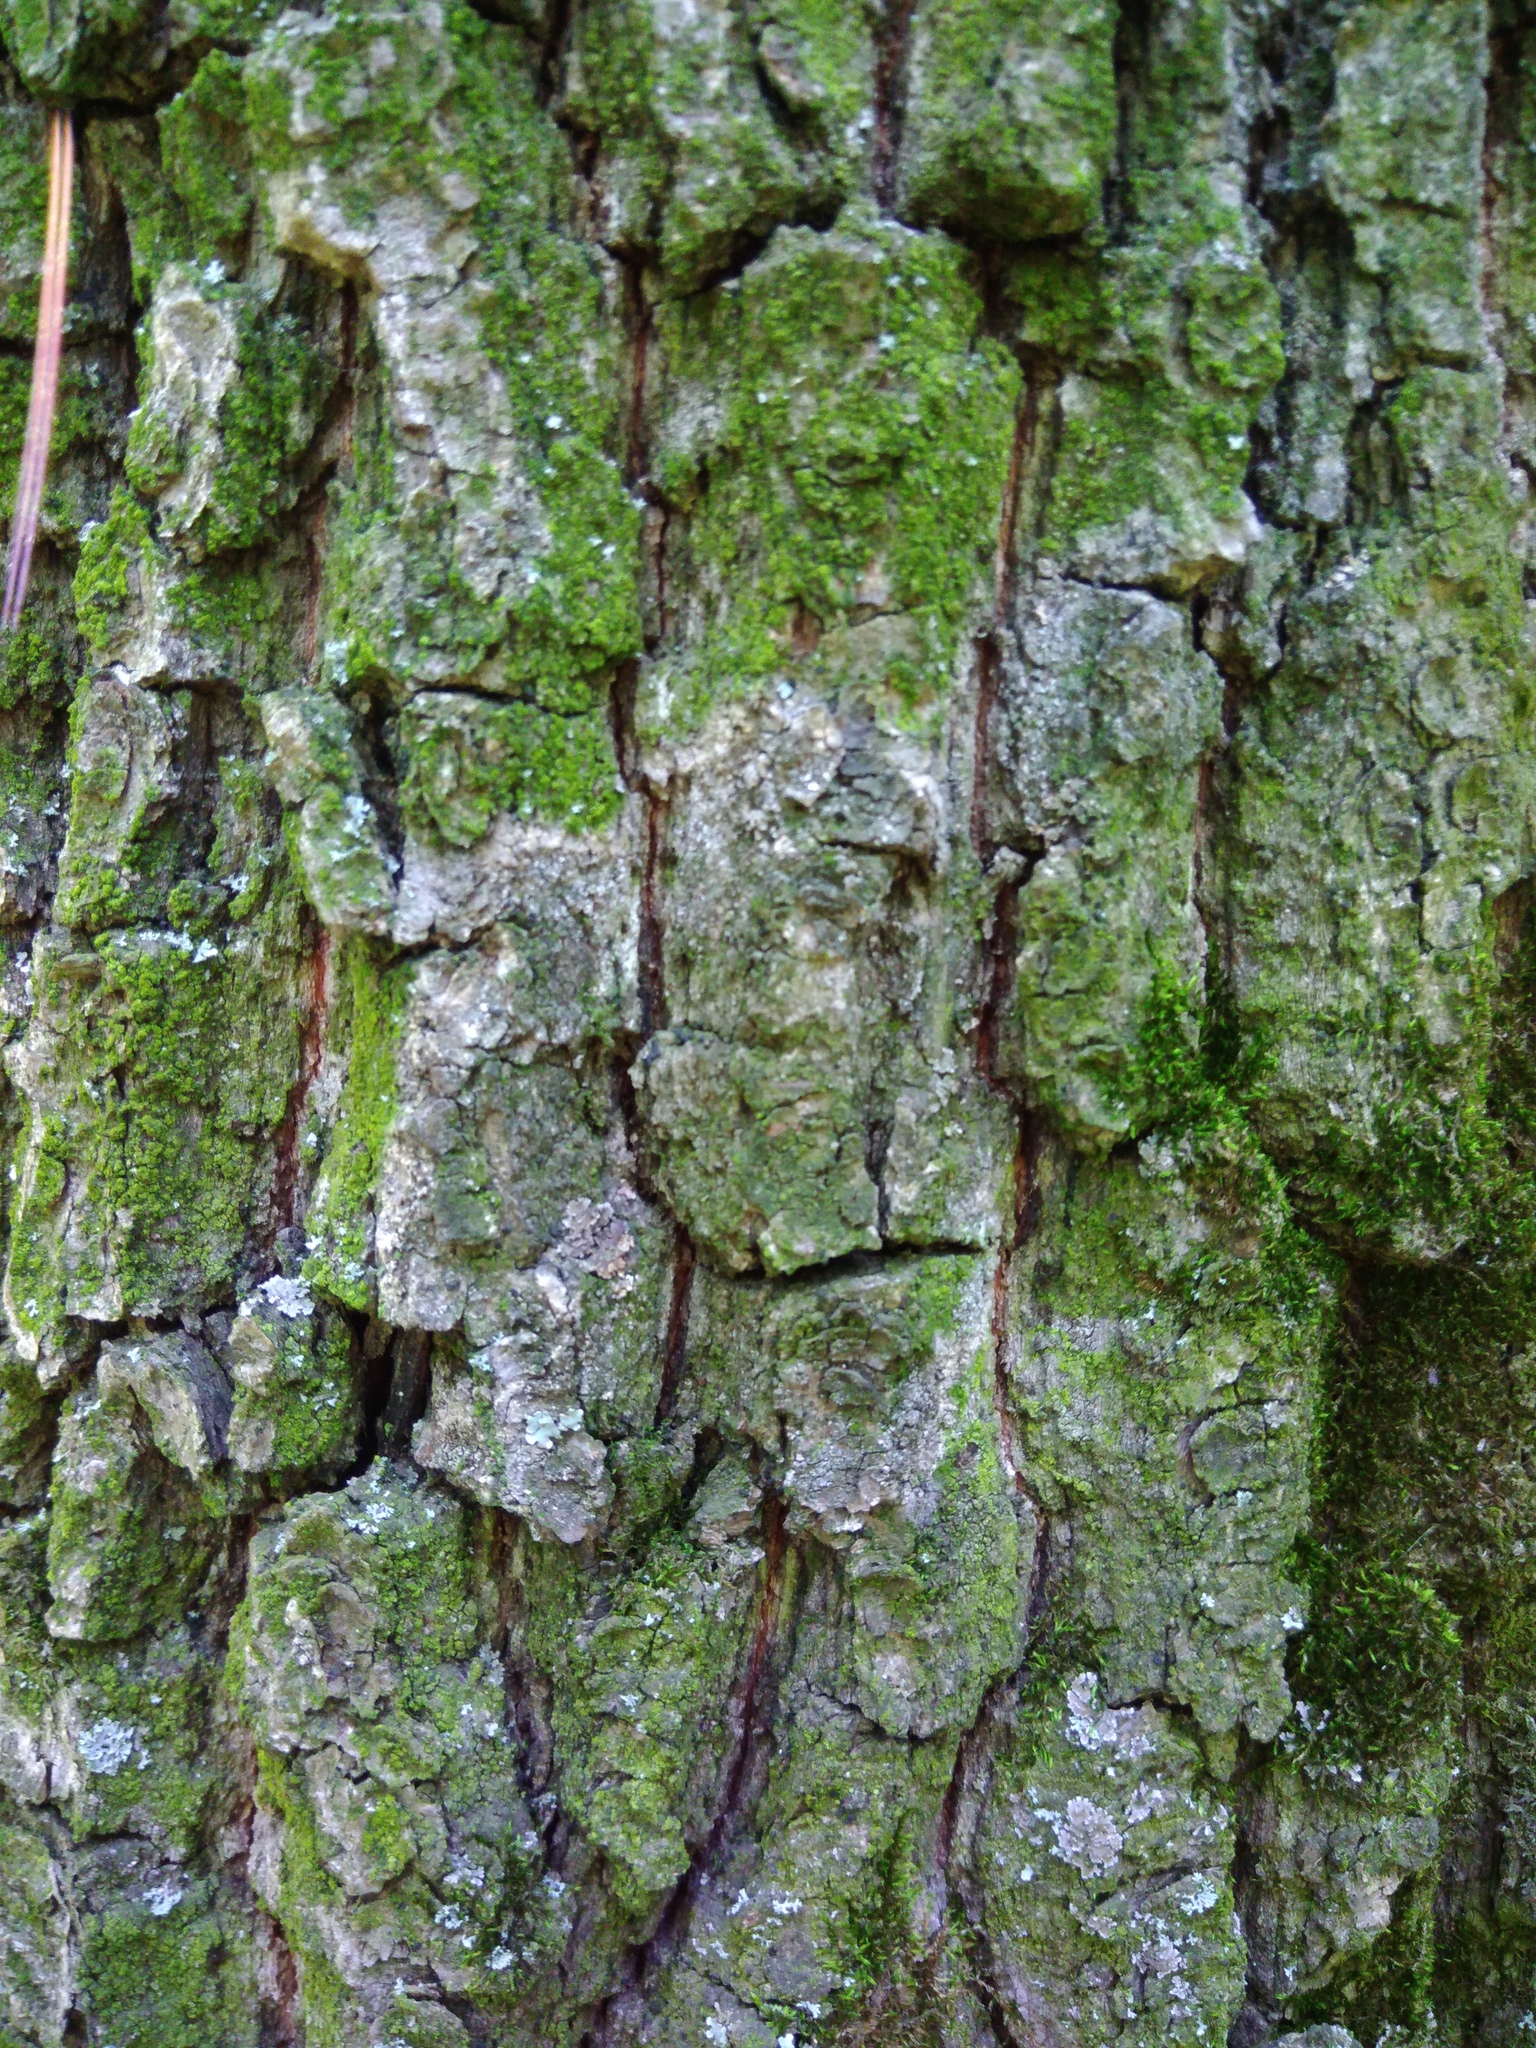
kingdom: Fungi
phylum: Basidiomycota
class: Agaricomycetes
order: Atheliales
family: Atheliaceae
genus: Athelia
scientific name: Athelia arachnoidea
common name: Candelabra duster
